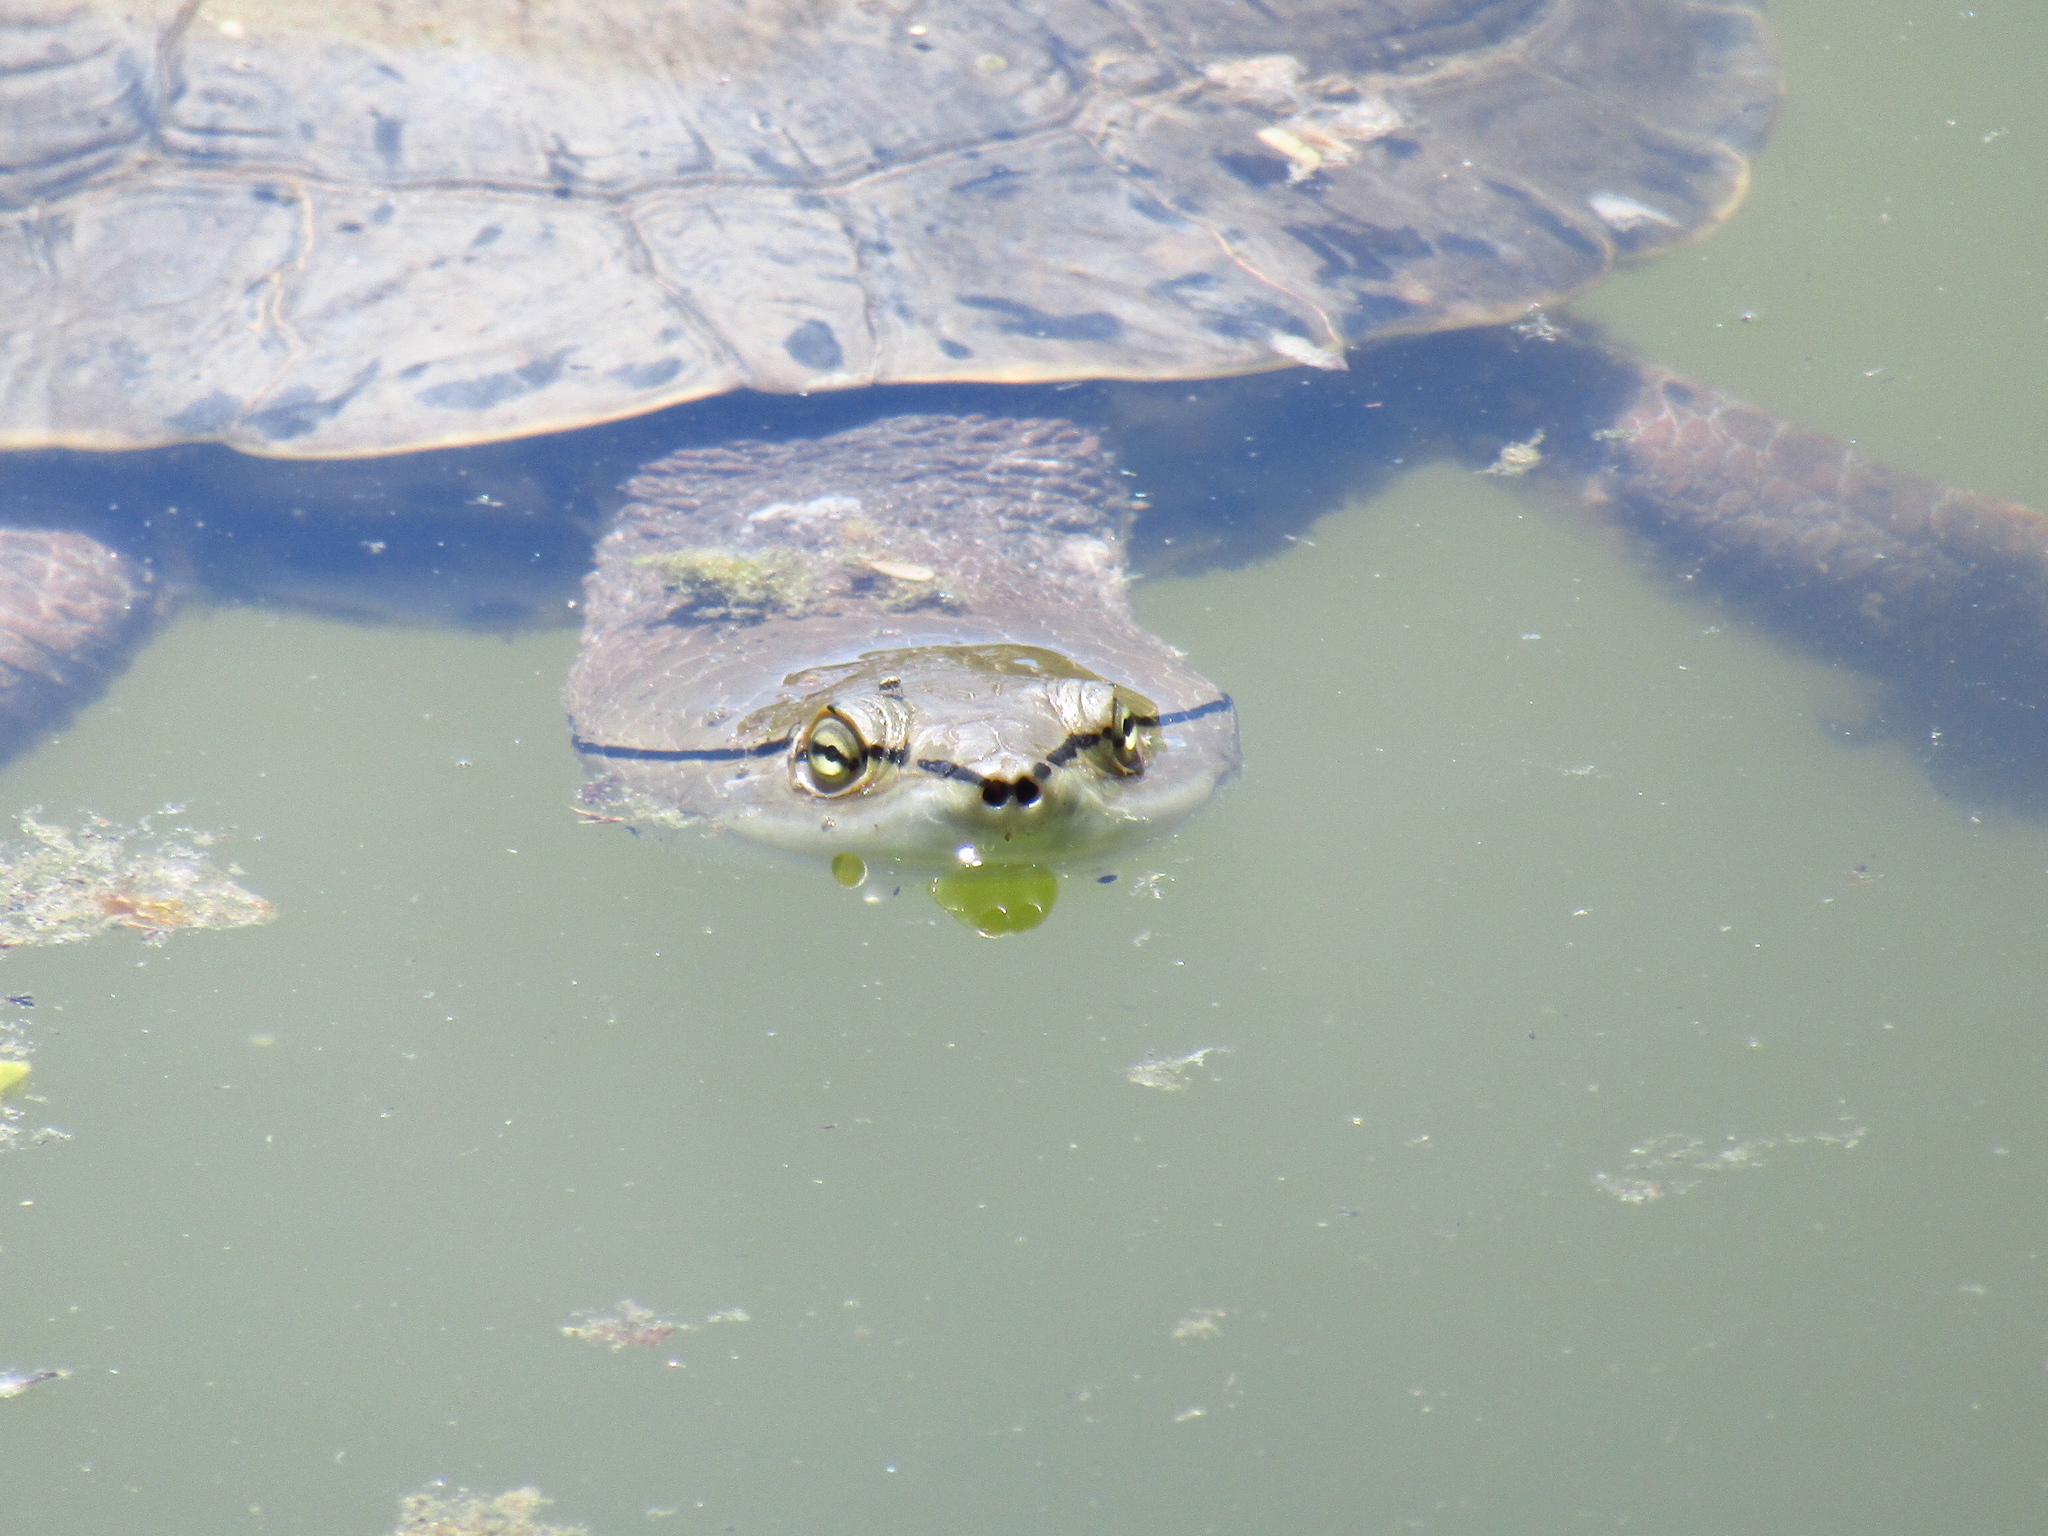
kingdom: Animalia
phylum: Chordata
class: Testudines
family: Chelidae
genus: Phrynops
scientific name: Phrynops hilarii
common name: Side-necked turtle of saint hillaire
